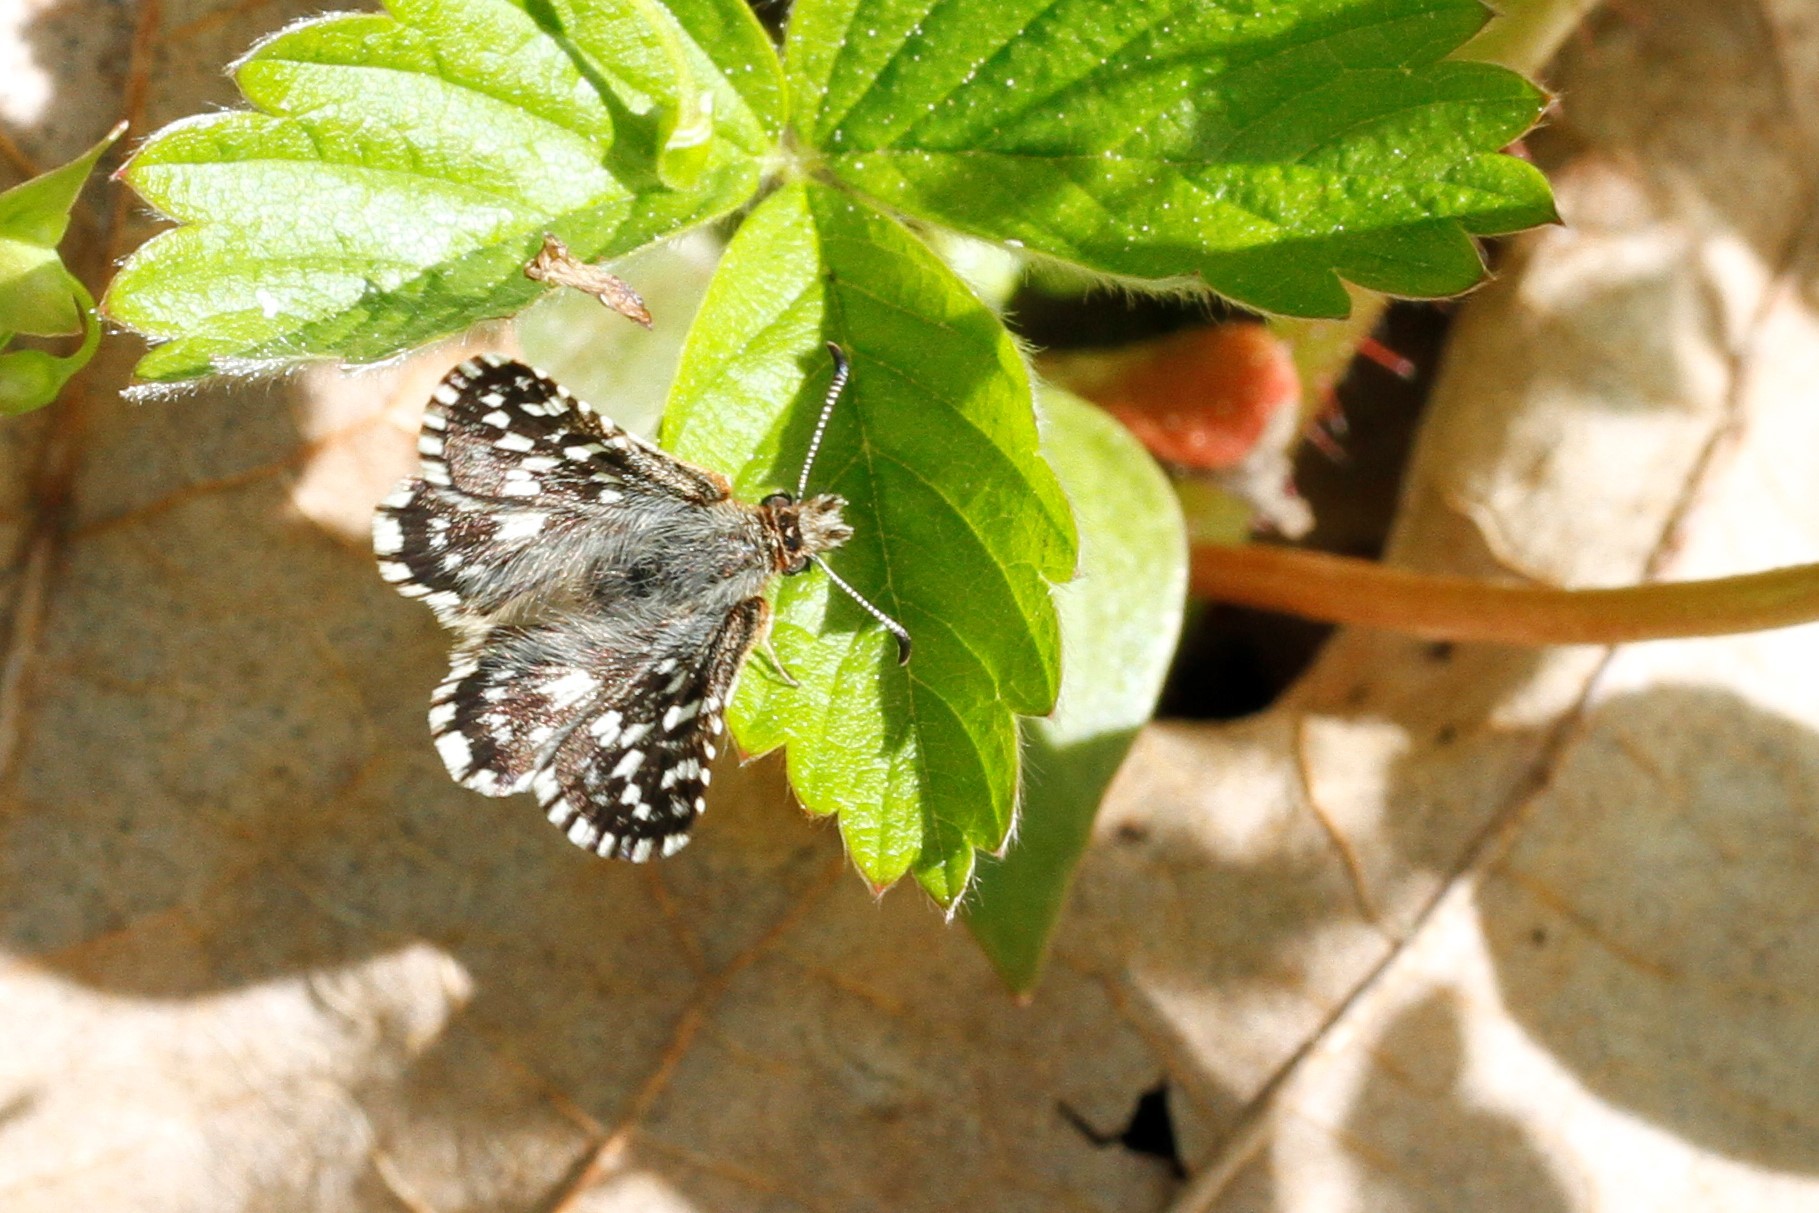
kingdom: Animalia
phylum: Arthropoda
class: Insecta
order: Lepidoptera
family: Hesperiidae
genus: Pyrgus
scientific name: Pyrgus ruralis
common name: Two-banded checkered-skipper
